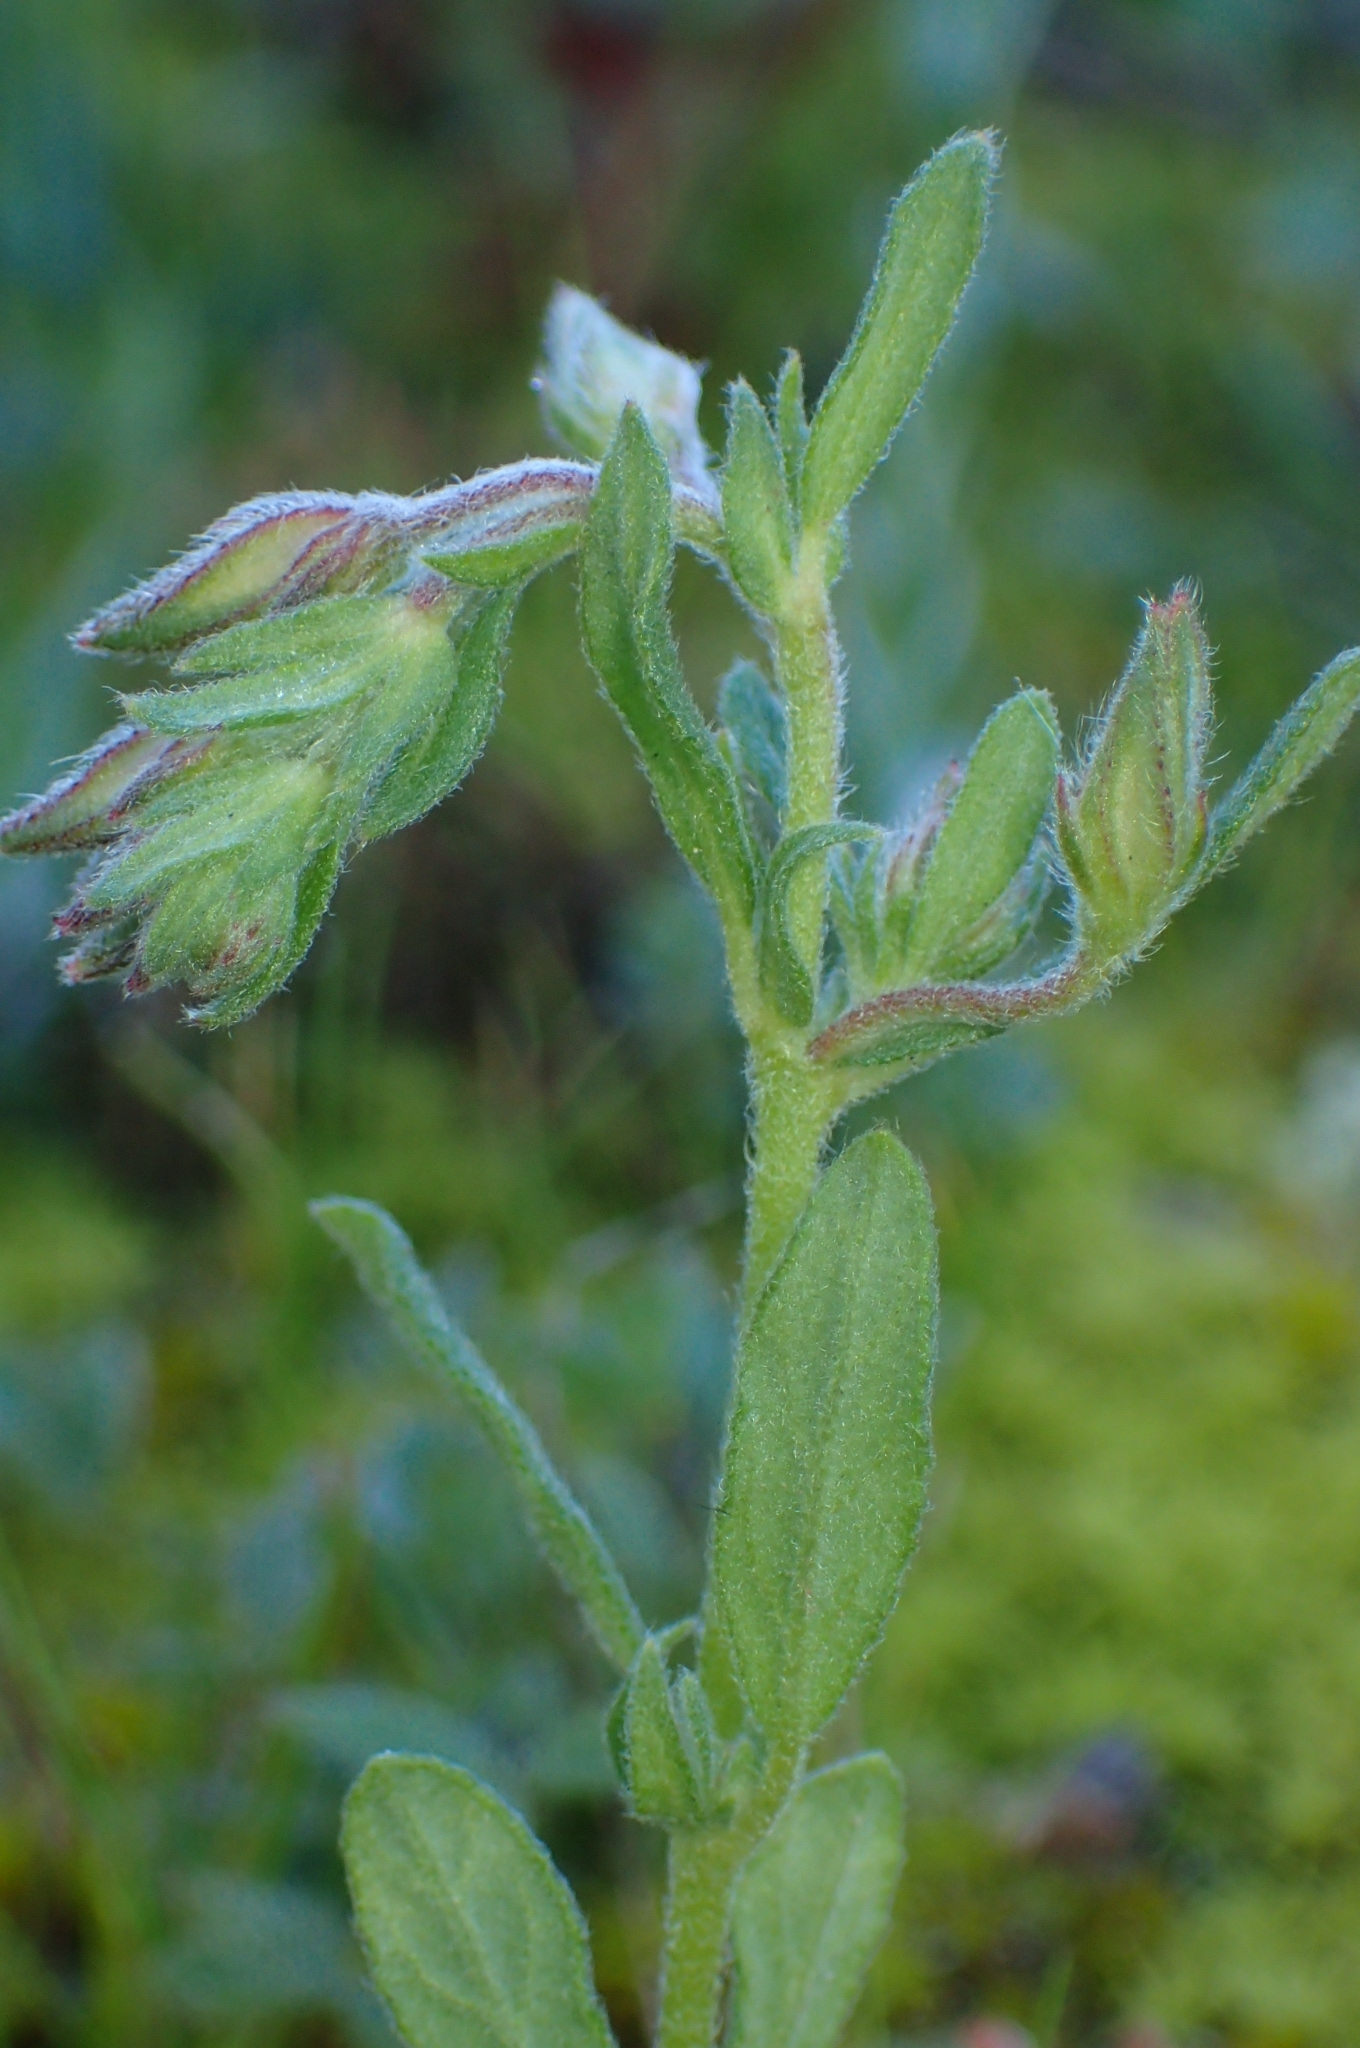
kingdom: Plantae
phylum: Tracheophyta
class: Magnoliopsida
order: Malvales
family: Cistaceae
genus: Helianthemum
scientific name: Helianthemum salicifolium
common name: Willowleaf frostweed
